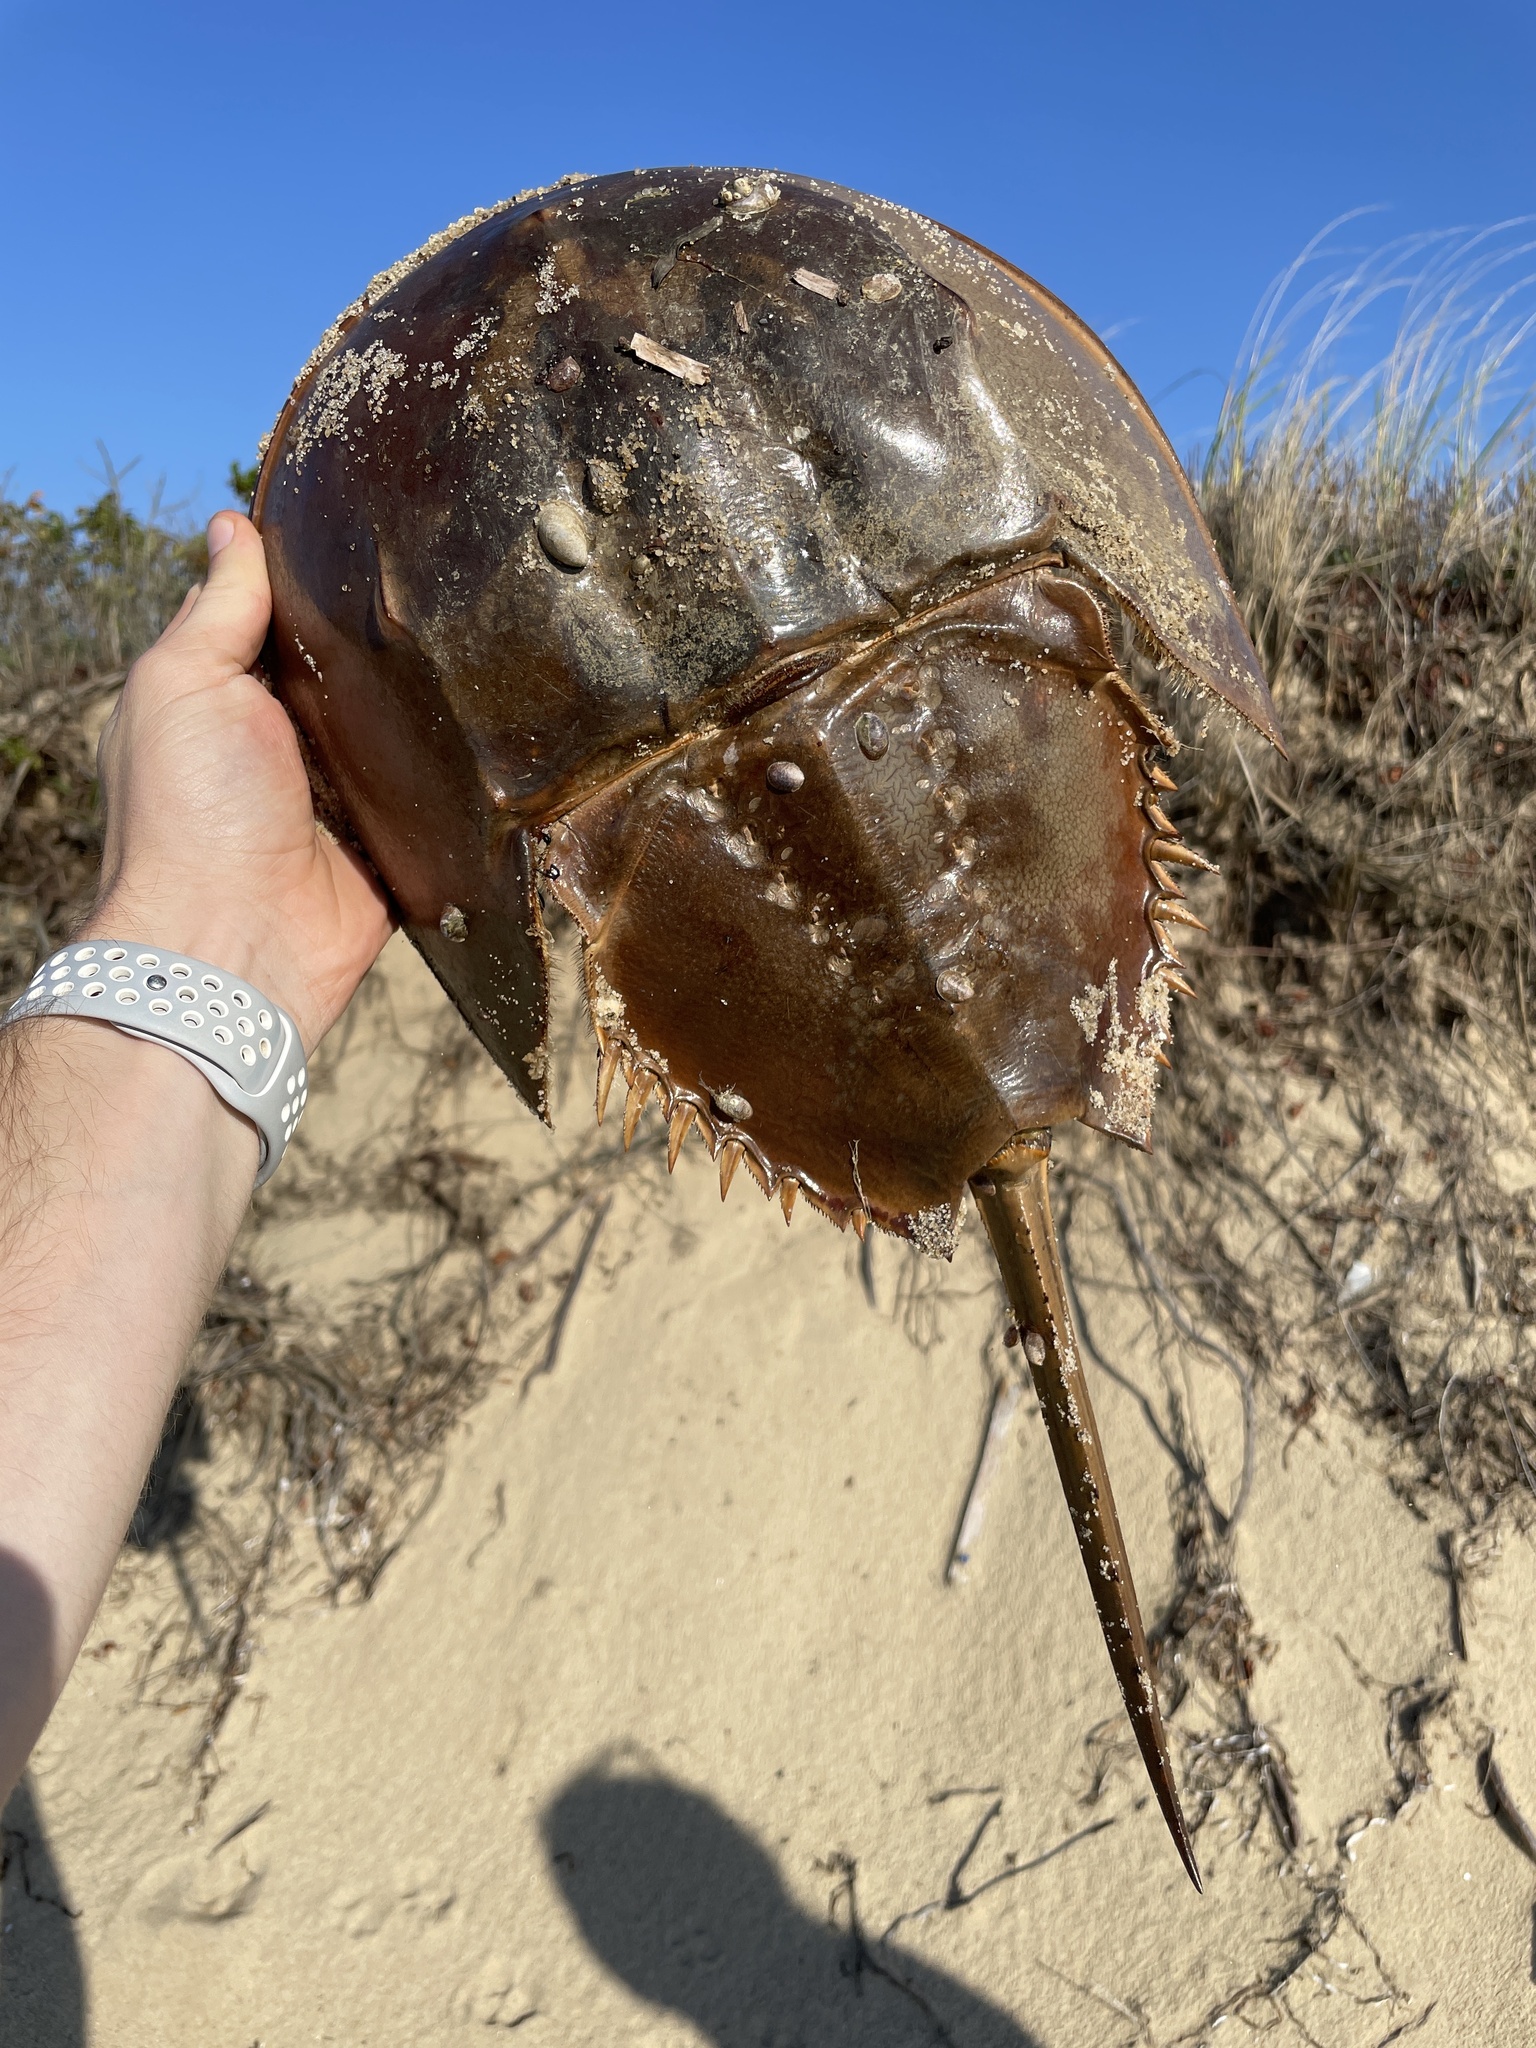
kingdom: Animalia
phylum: Arthropoda
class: Merostomata
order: Xiphosurida
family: Limulidae
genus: Limulus
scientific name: Limulus polyphemus
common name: Horseshoe crab
